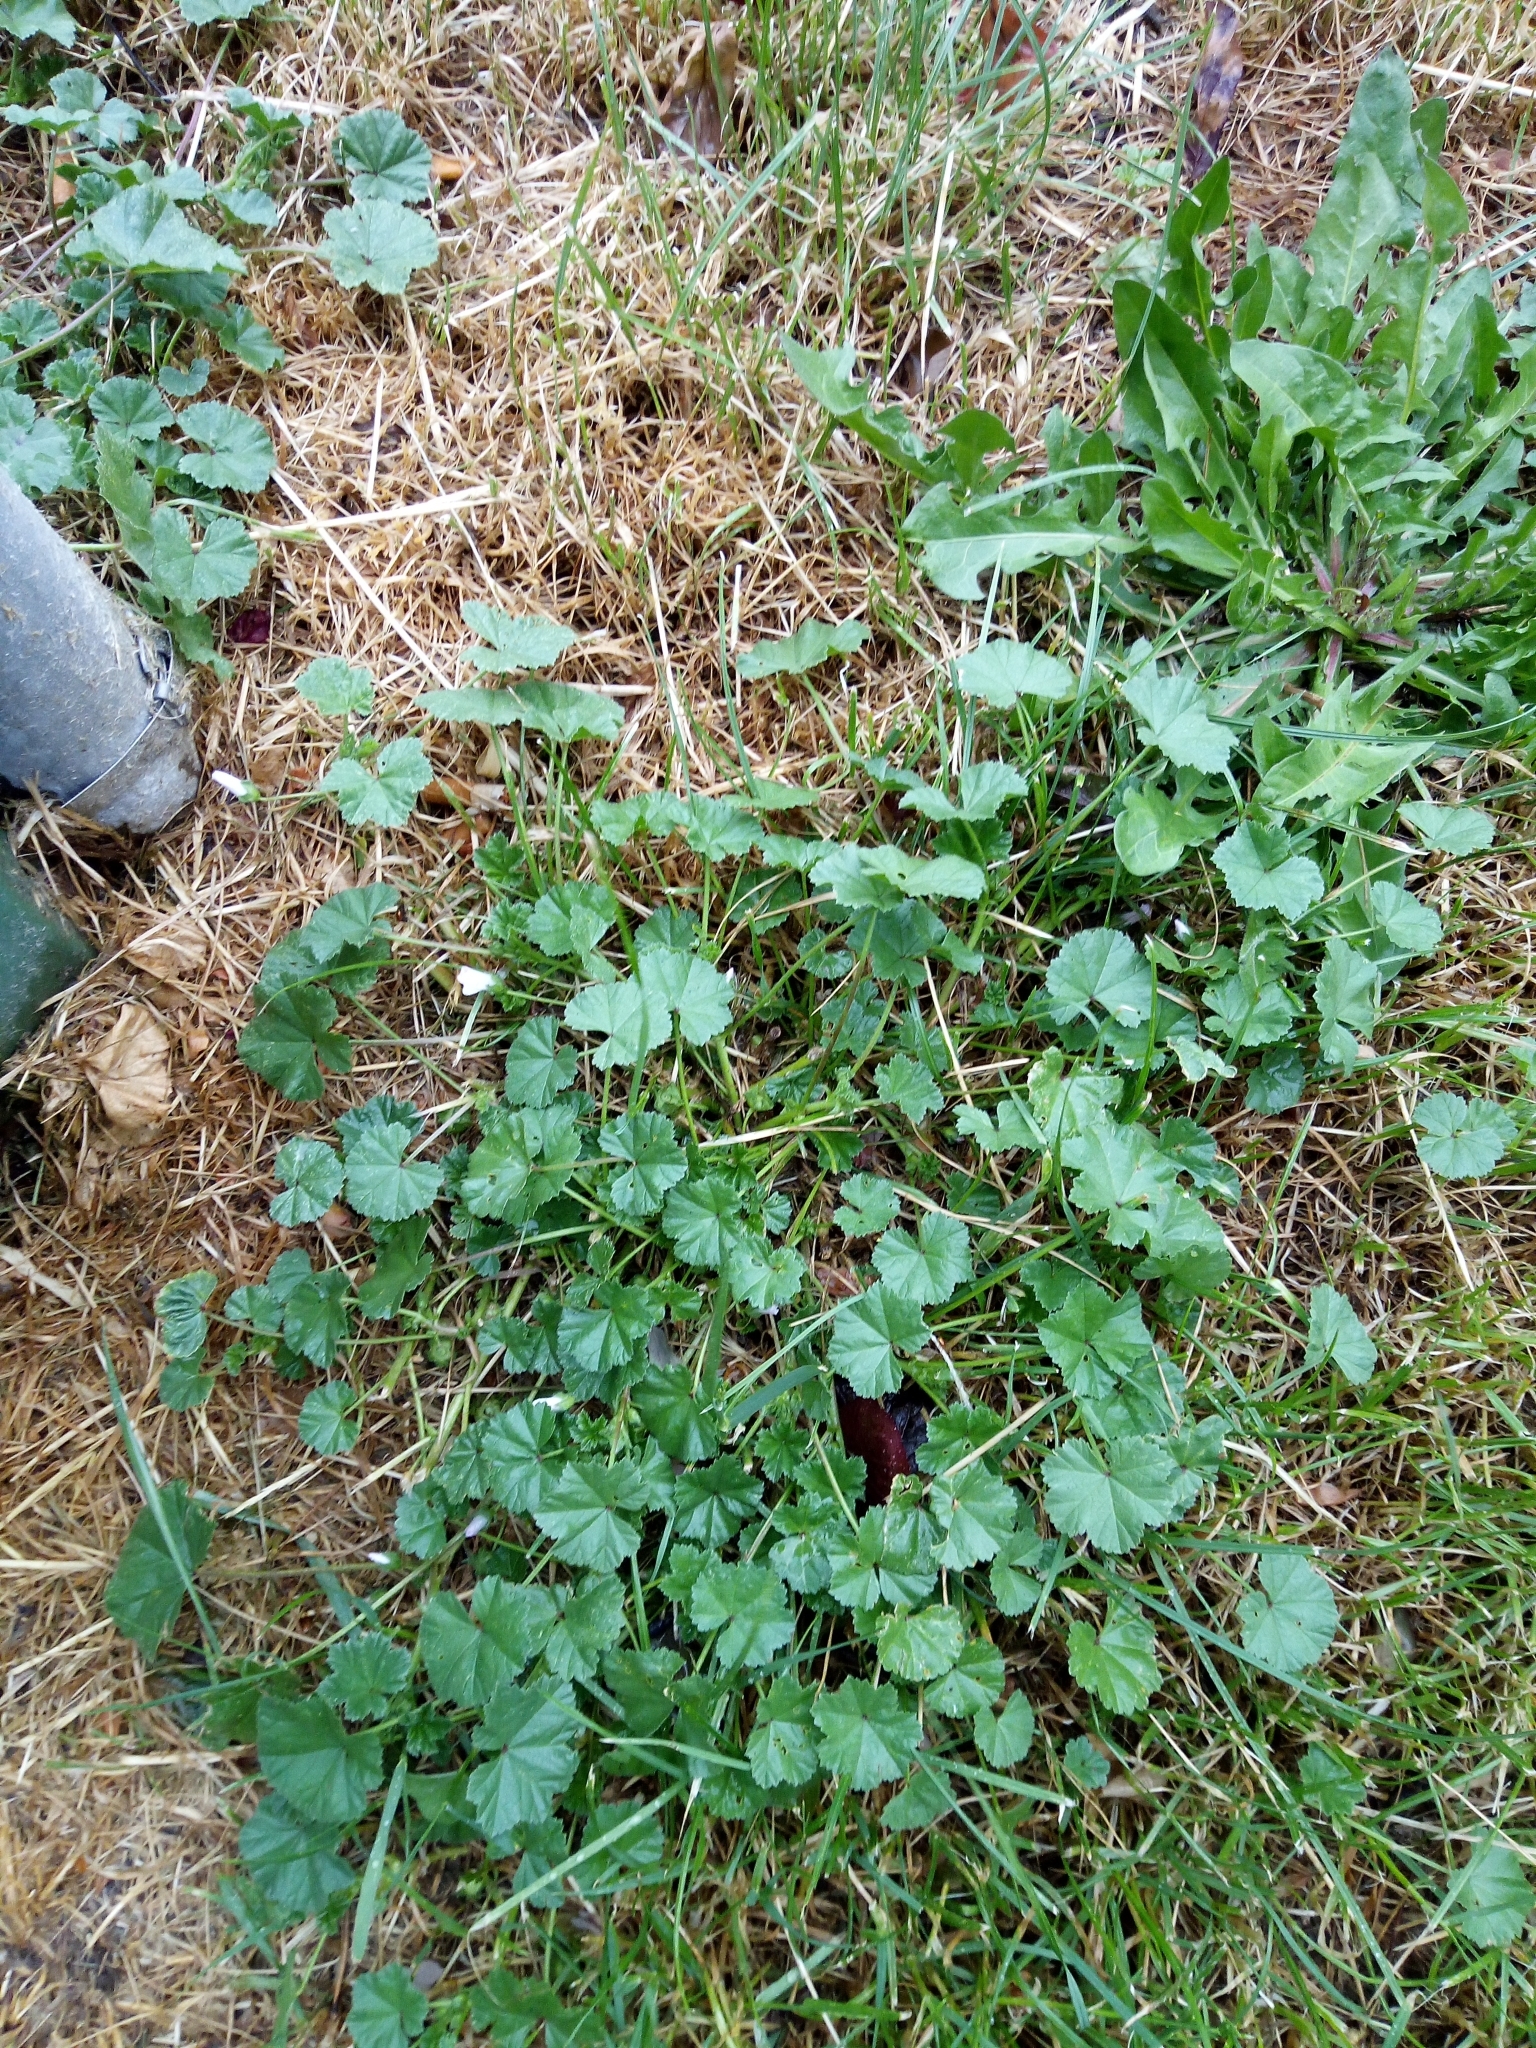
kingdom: Plantae
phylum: Tracheophyta
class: Magnoliopsida
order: Malvales
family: Malvaceae
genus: Malva
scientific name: Malva neglecta
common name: Common mallow
